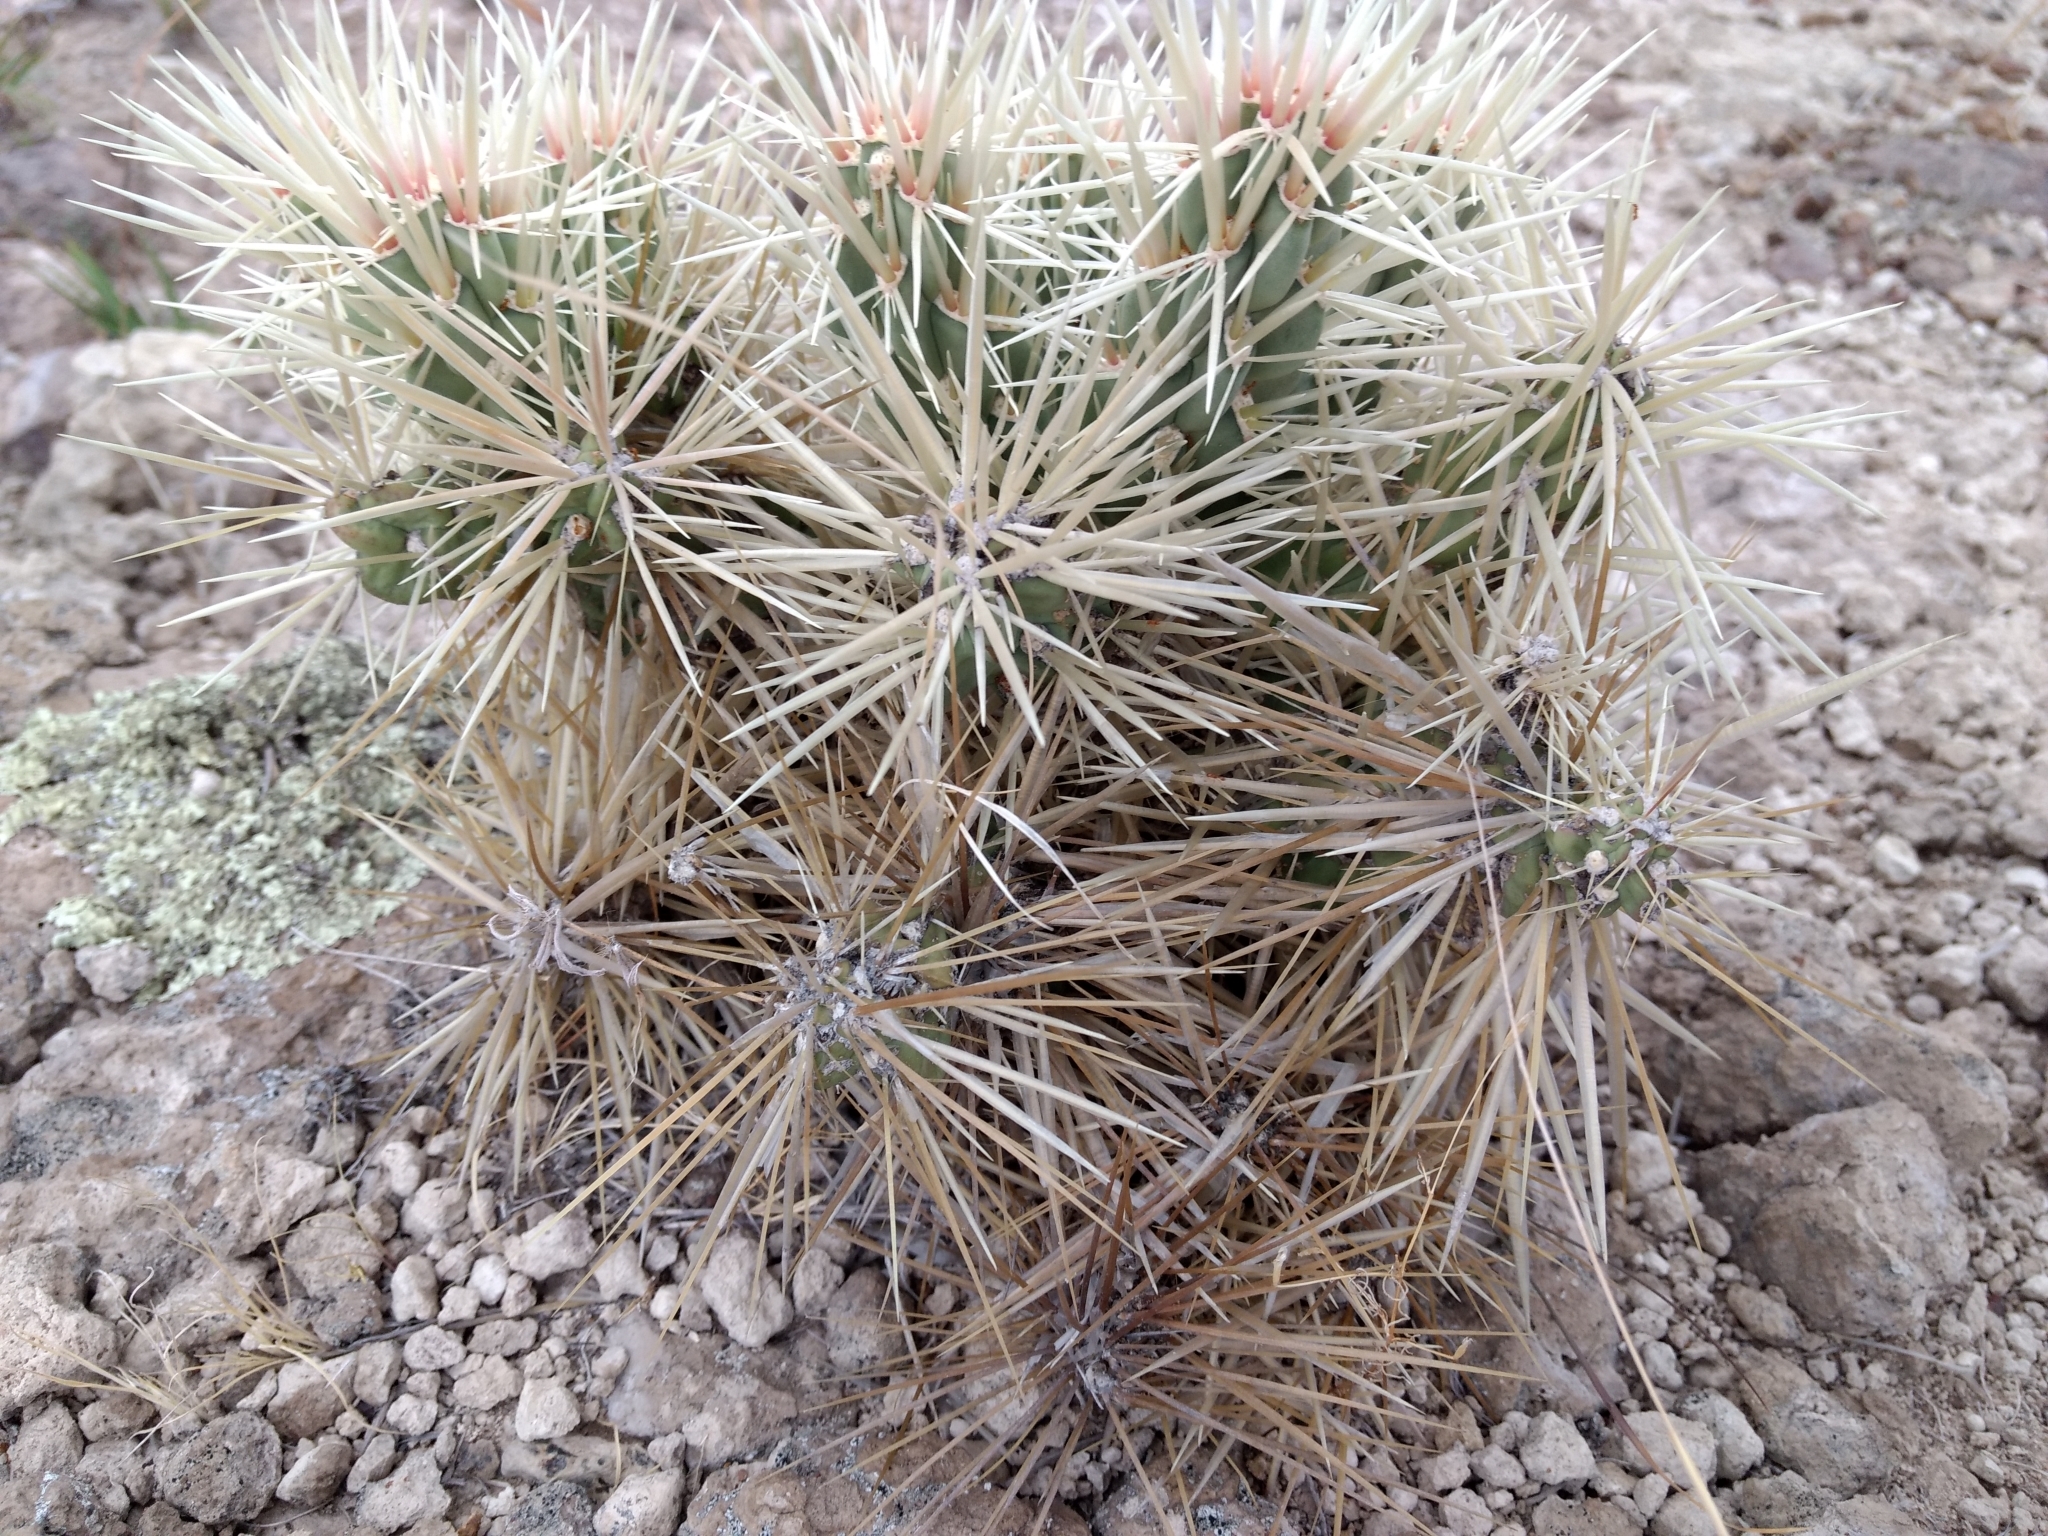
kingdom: Plantae
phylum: Tracheophyta
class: Magnoliopsida
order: Caryophyllales
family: Cactaceae
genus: Cylindropuntia
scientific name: Cylindropuntia tunicata
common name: Sheathed cholla
